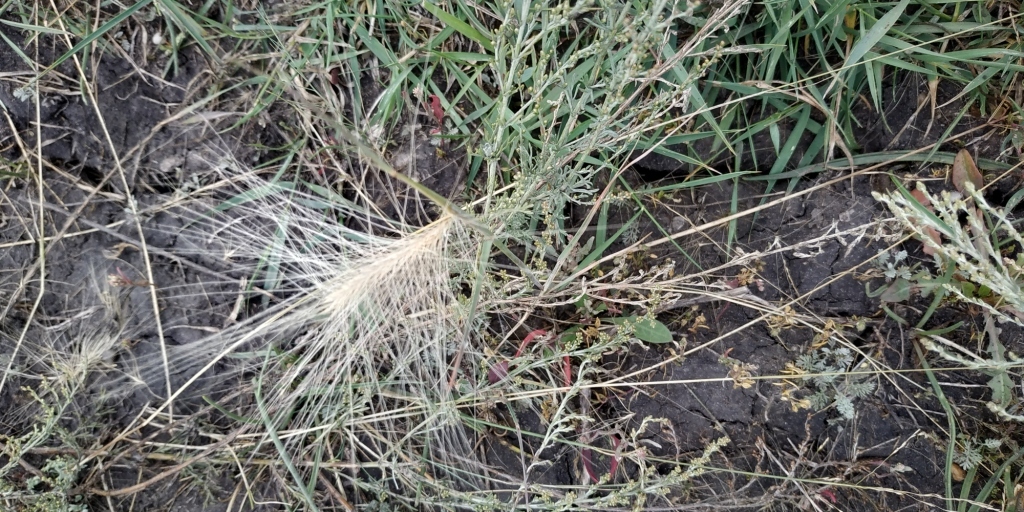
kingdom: Plantae
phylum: Tracheophyta
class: Liliopsida
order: Poales
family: Poaceae
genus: Hordeum
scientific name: Hordeum jubatum
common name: Foxtail barley
